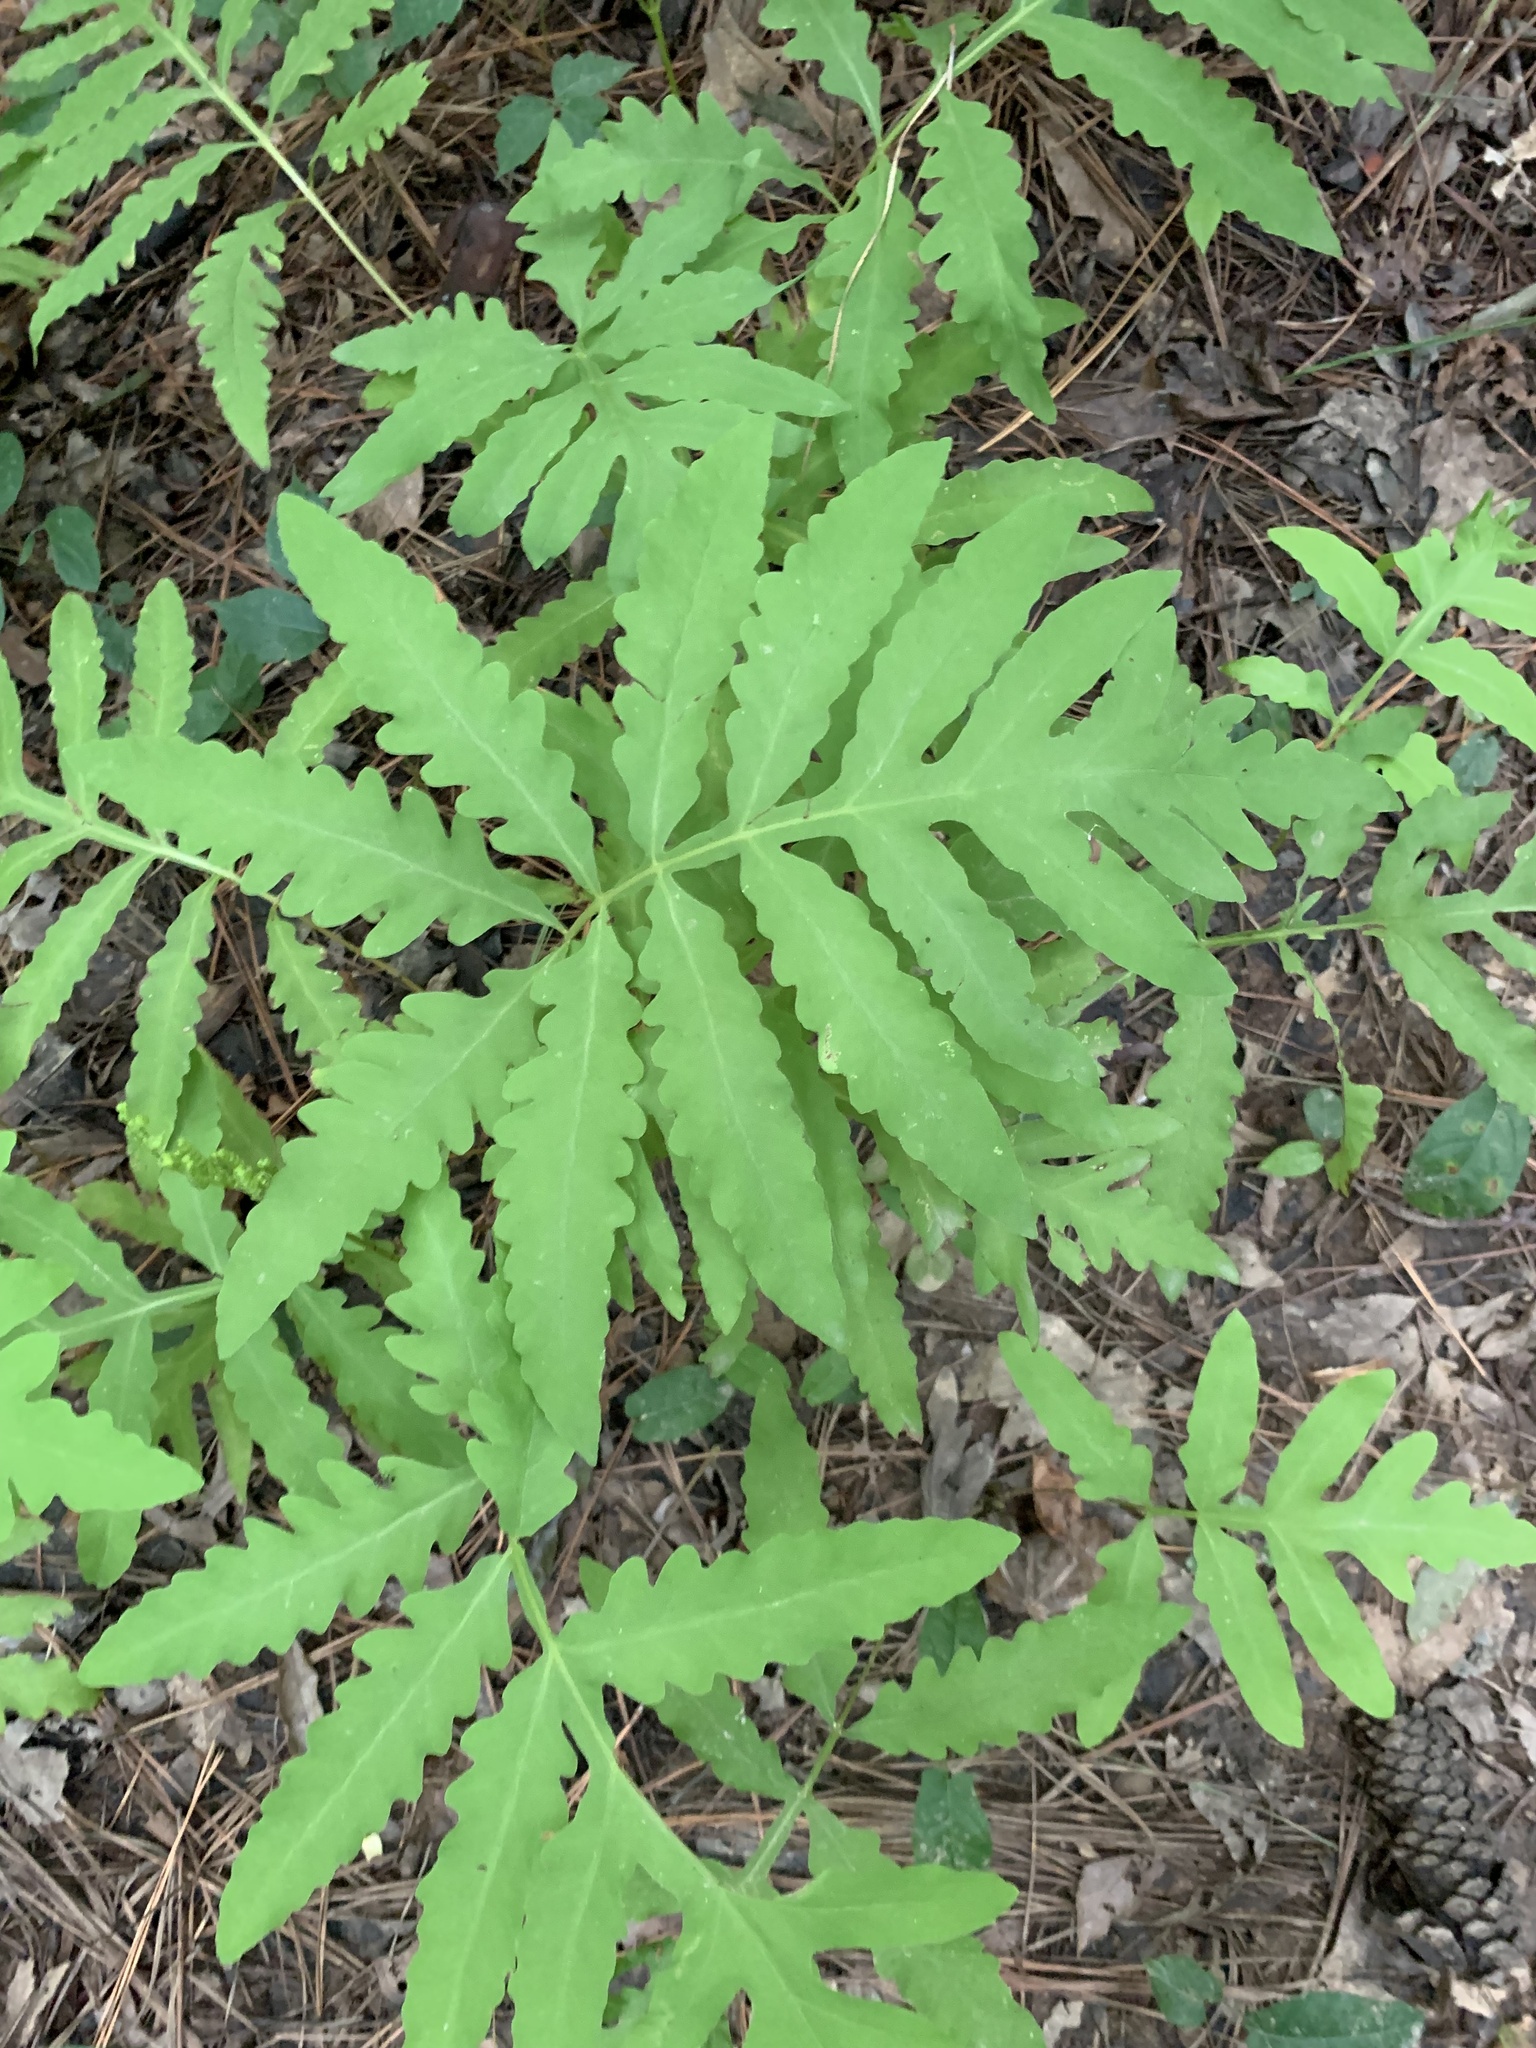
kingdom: Plantae
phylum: Tracheophyta
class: Polypodiopsida
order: Polypodiales
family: Onocleaceae
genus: Onoclea
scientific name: Onoclea sensibilis
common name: Sensitive fern
